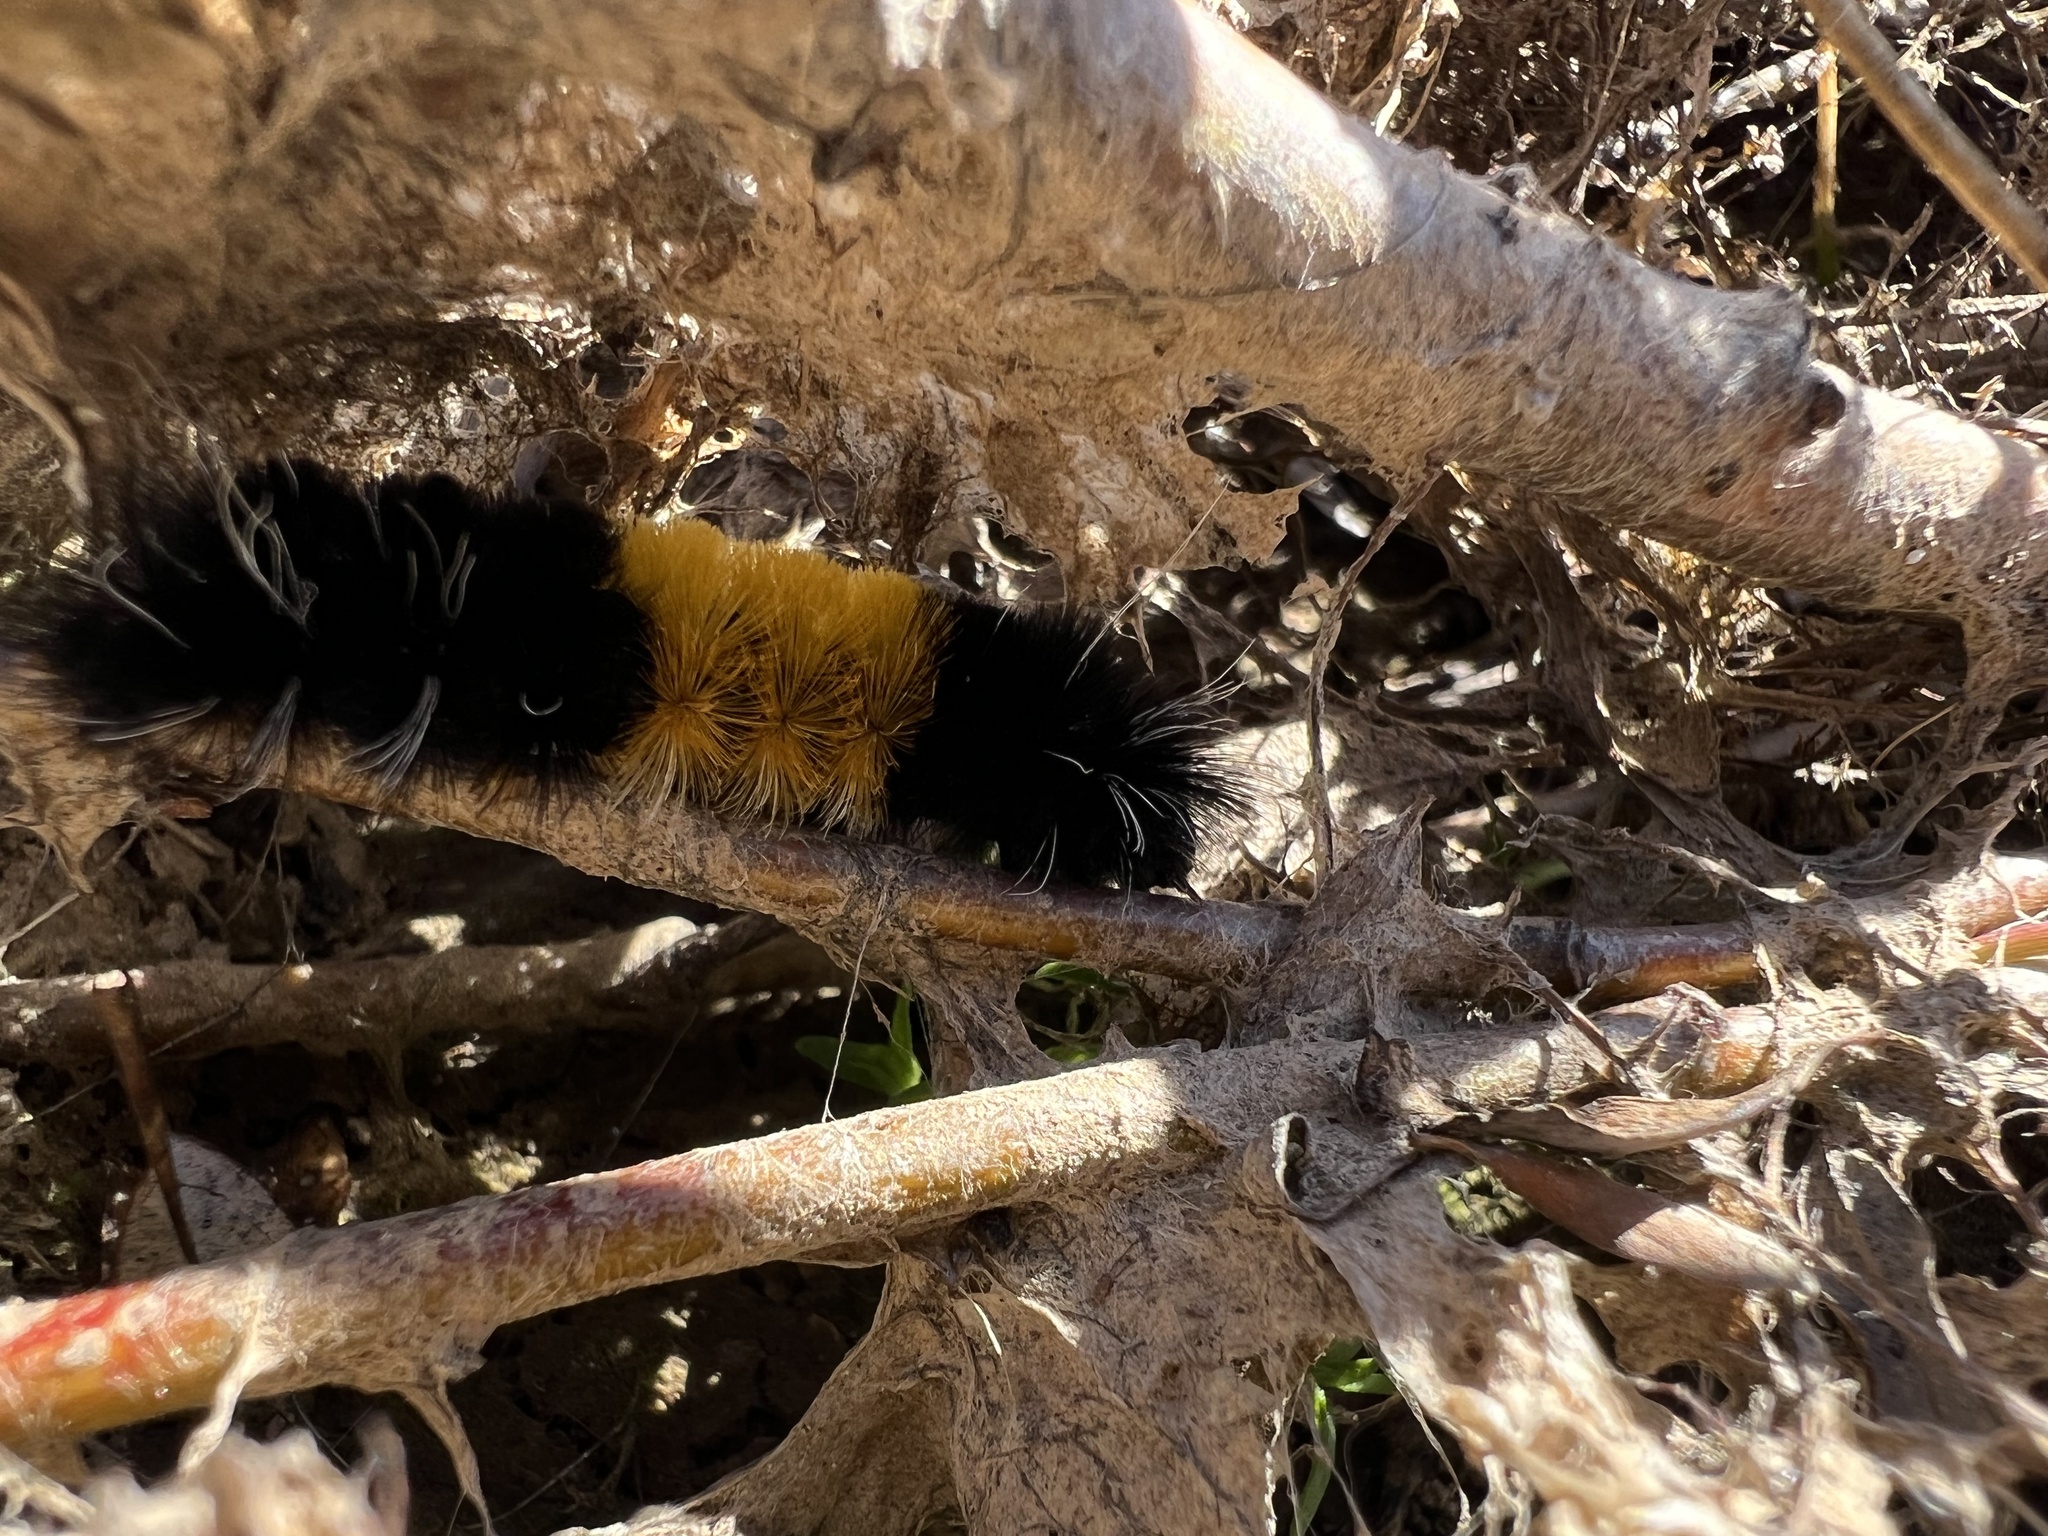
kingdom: Animalia
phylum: Arthropoda
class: Insecta
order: Lepidoptera
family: Erebidae
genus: Lophocampa
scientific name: Lophocampa maculata
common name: Spotted tussock moth
